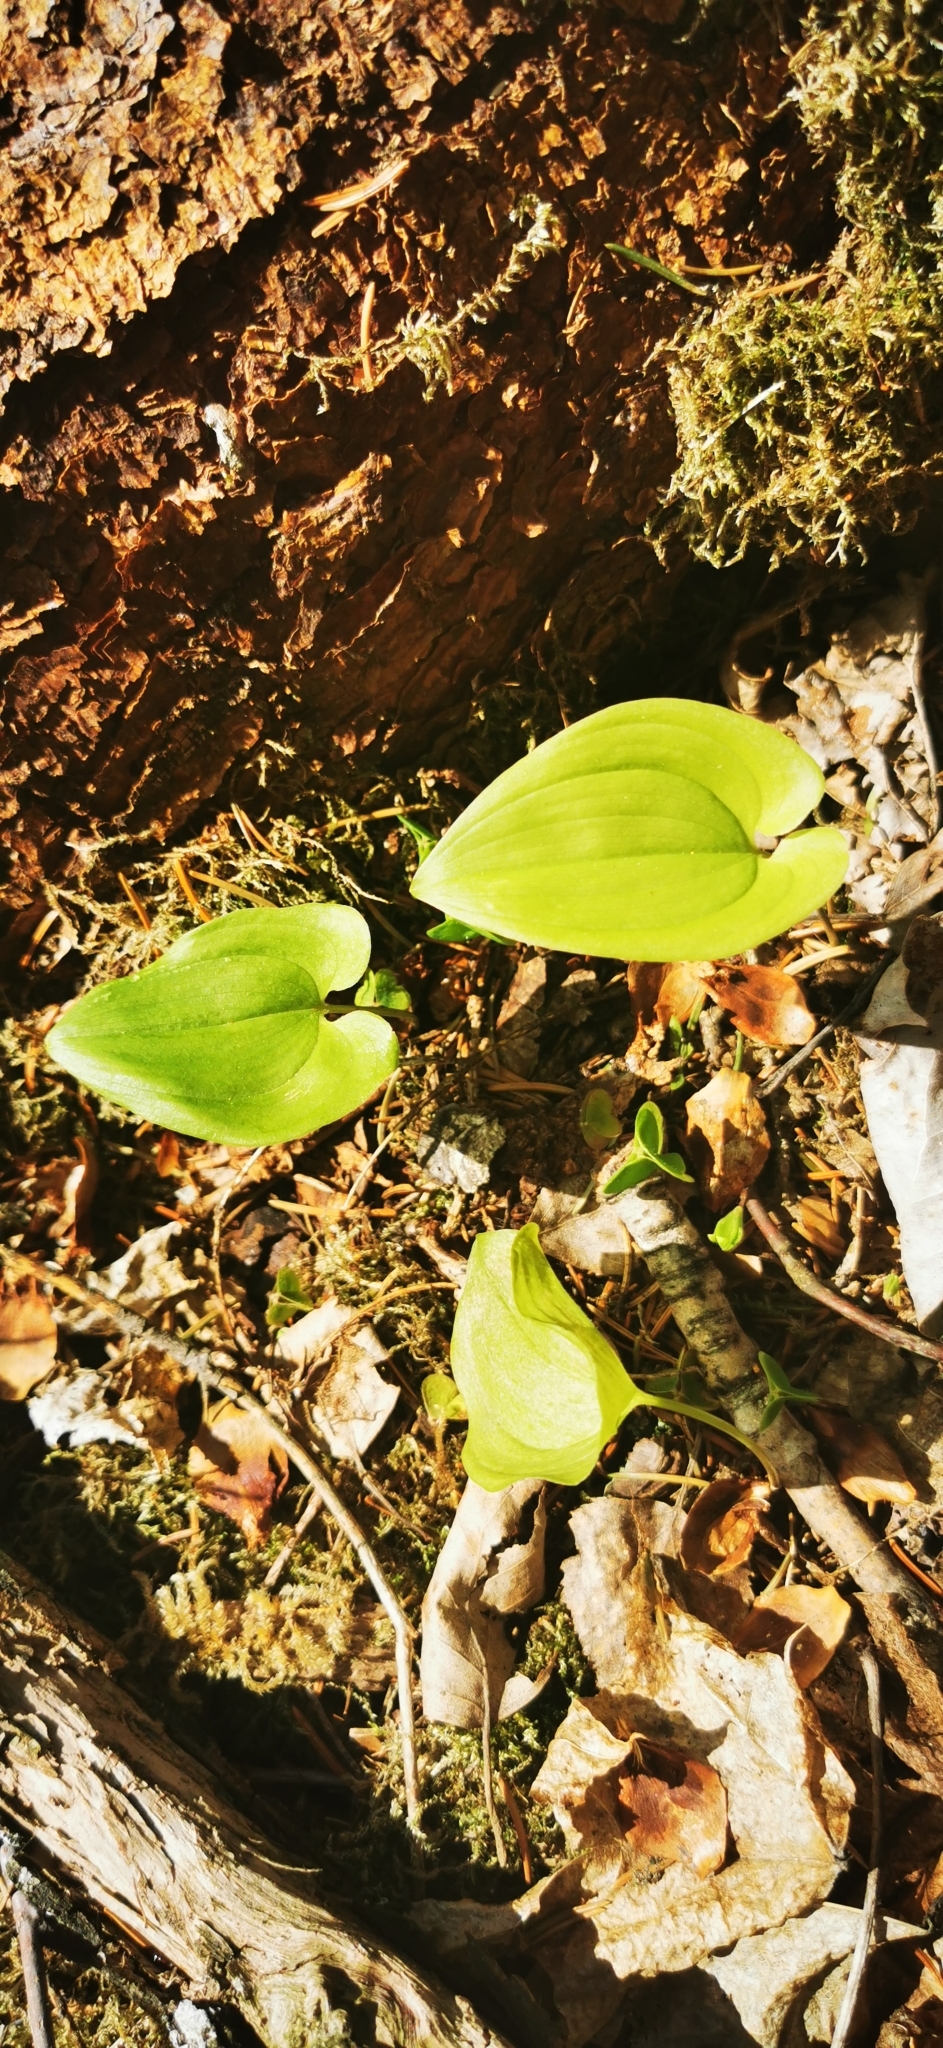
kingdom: Plantae
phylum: Tracheophyta
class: Liliopsida
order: Asparagales
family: Asparagaceae
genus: Maianthemum
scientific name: Maianthemum bifolium
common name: May lily
